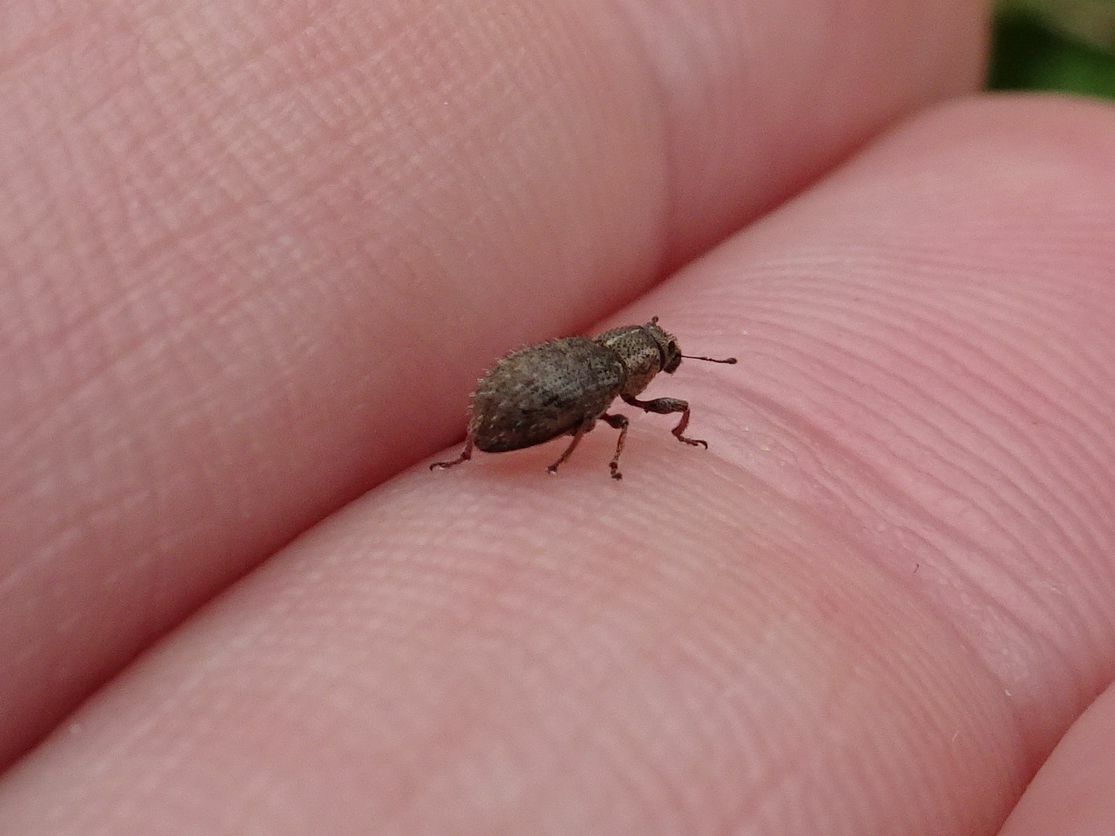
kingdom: Animalia
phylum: Arthropoda
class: Insecta
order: Coleoptera
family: Curculionidae
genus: Sitona
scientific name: Sitona hispidulus
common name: Clover weevil
